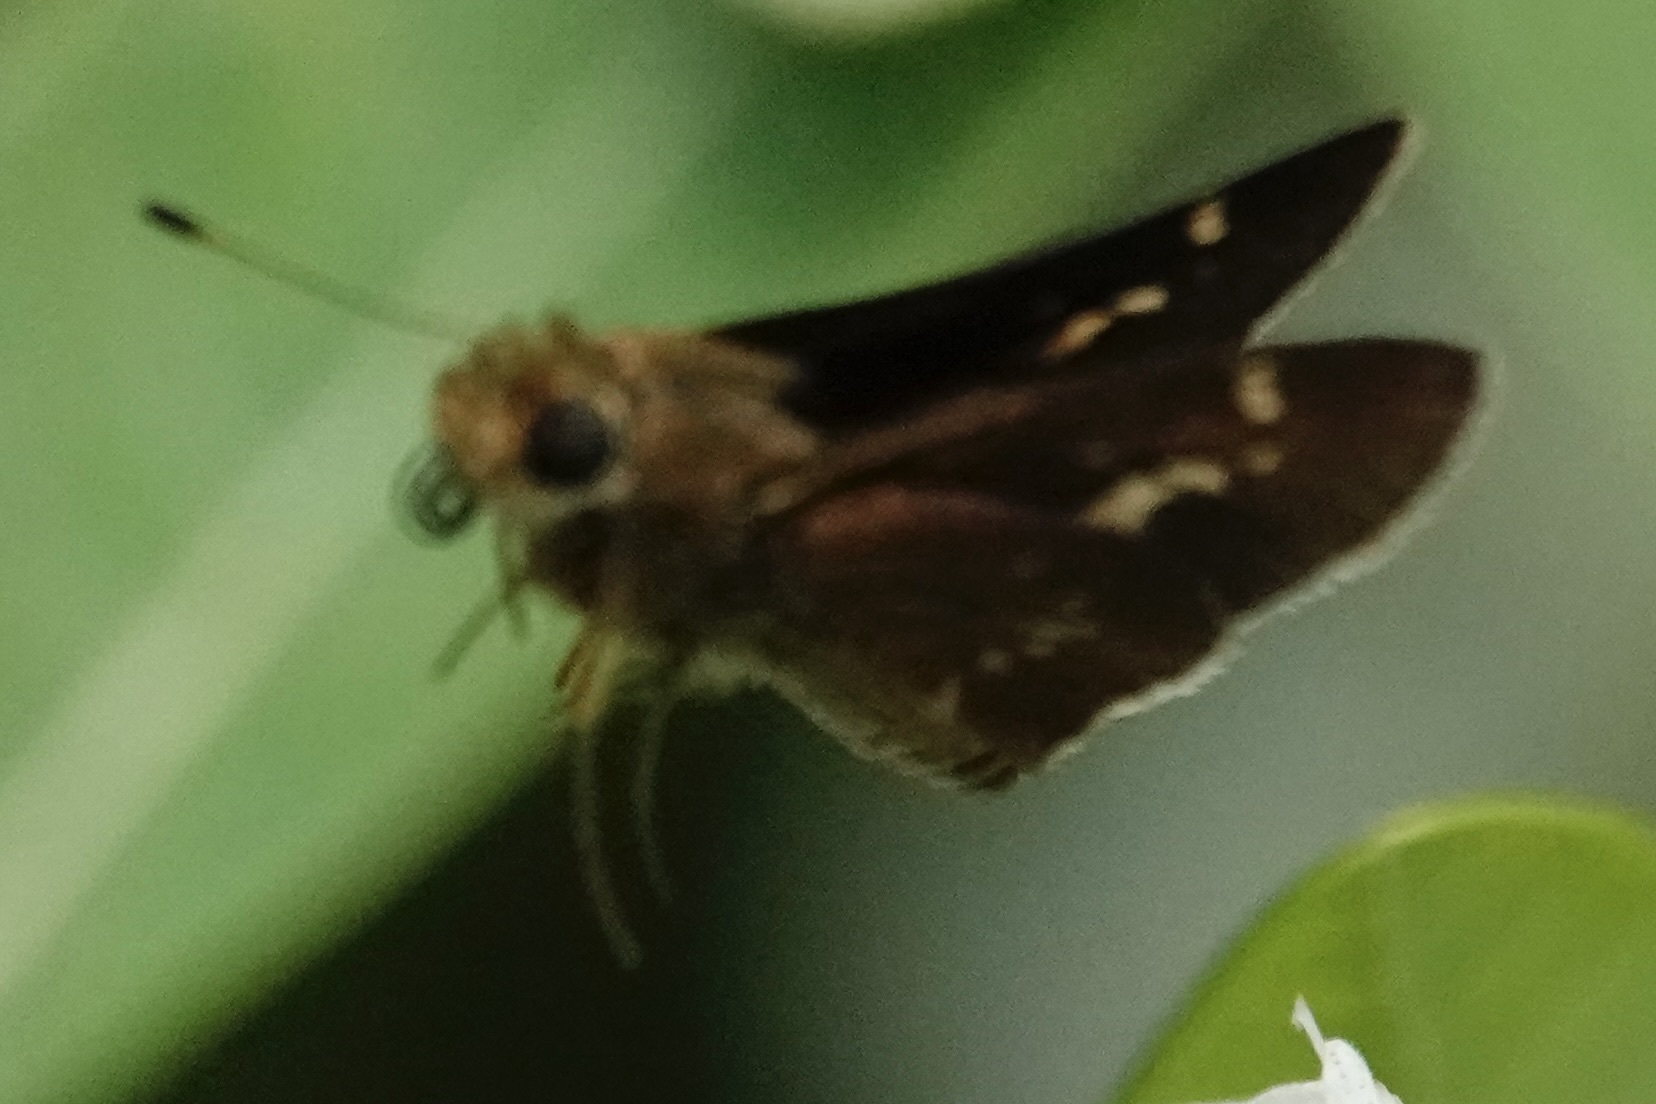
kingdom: Animalia
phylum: Arthropoda
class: Insecta
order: Lepidoptera
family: Hesperiidae
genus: Vernia
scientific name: Vernia verna
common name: Little glassywing
